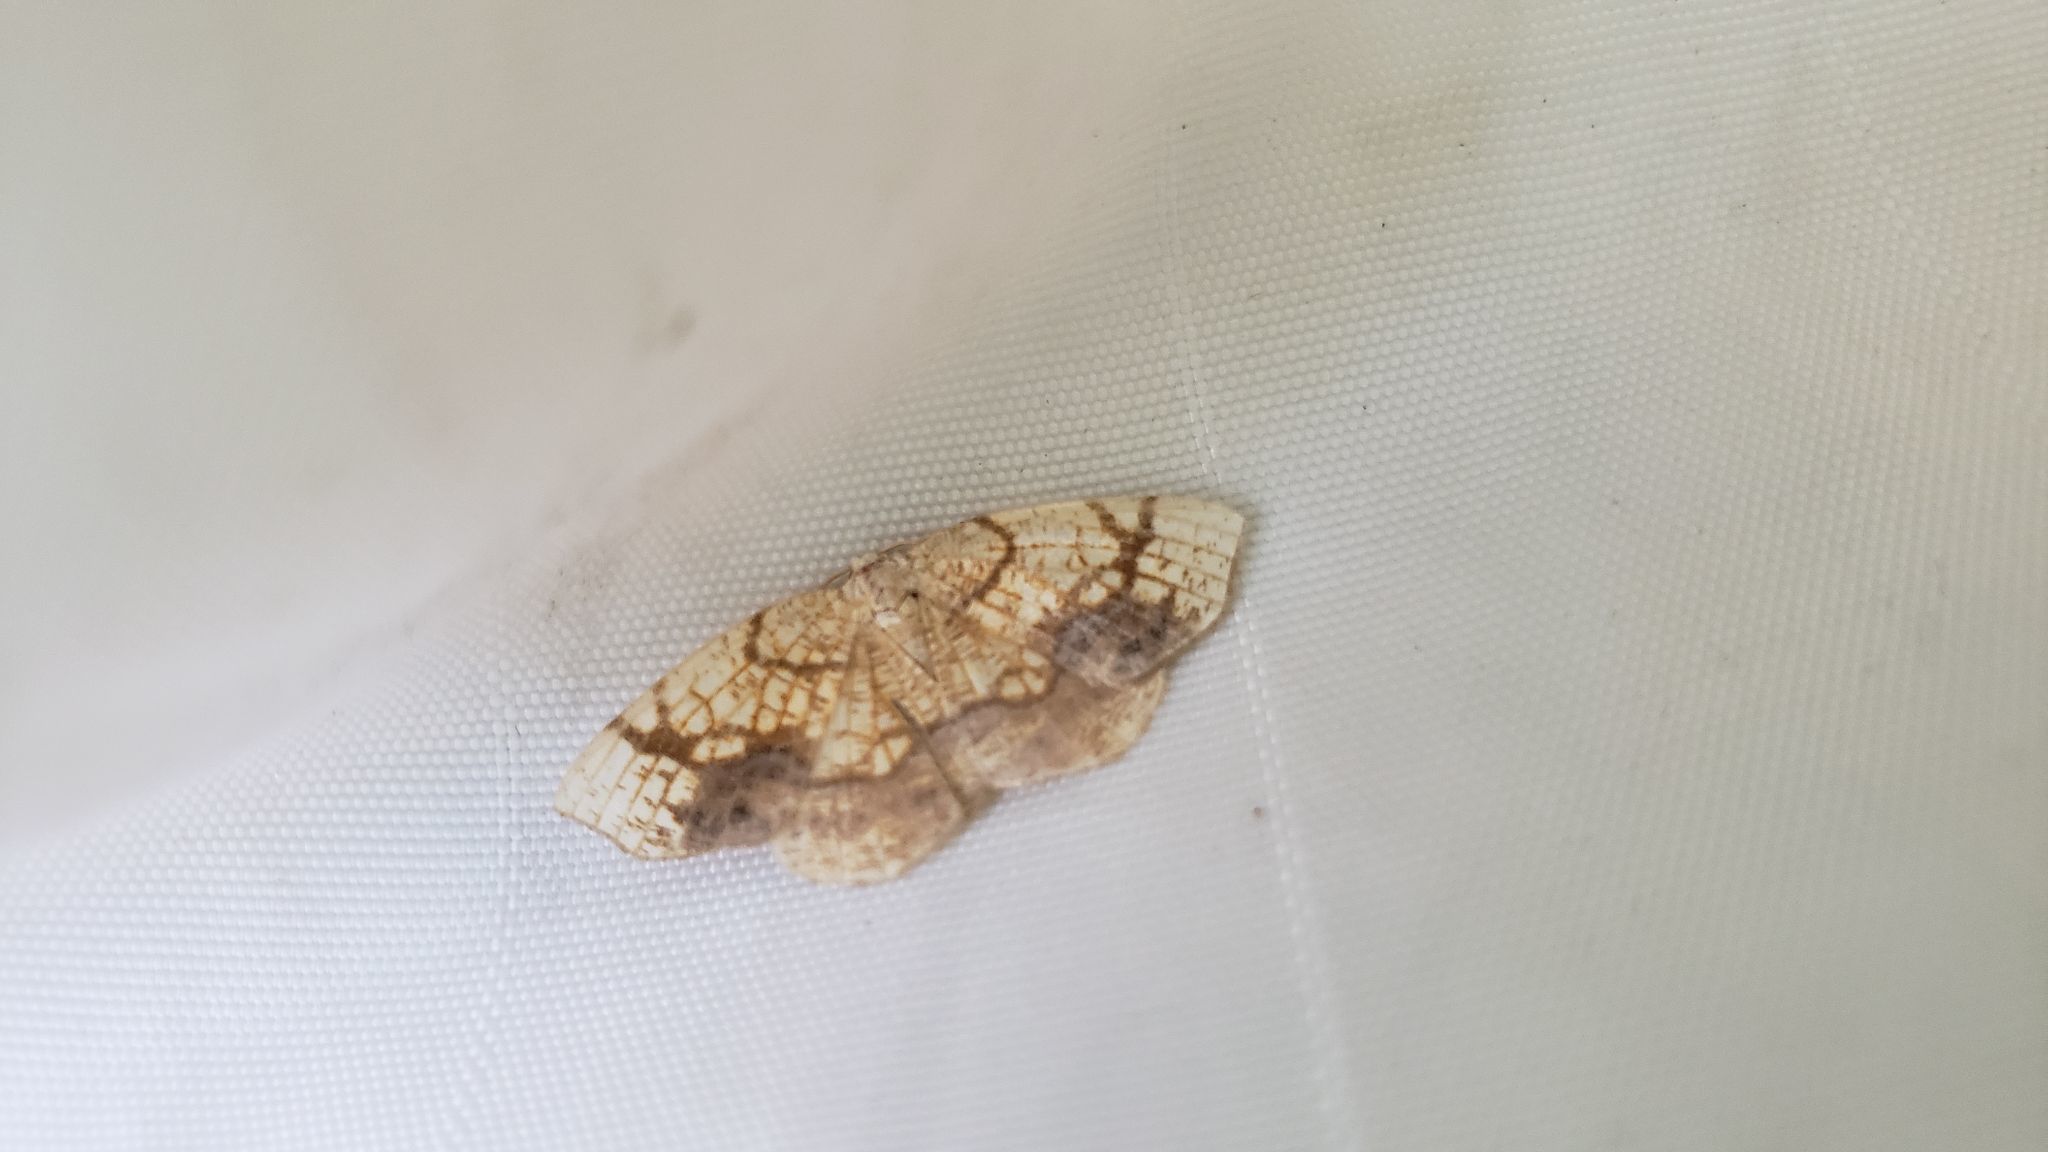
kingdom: Animalia
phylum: Arthropoda
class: Insecta
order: Lepidoptera
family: Geometridae
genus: Nematocampa
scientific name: Nematocampa resistaria
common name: Horned spanworm moth
